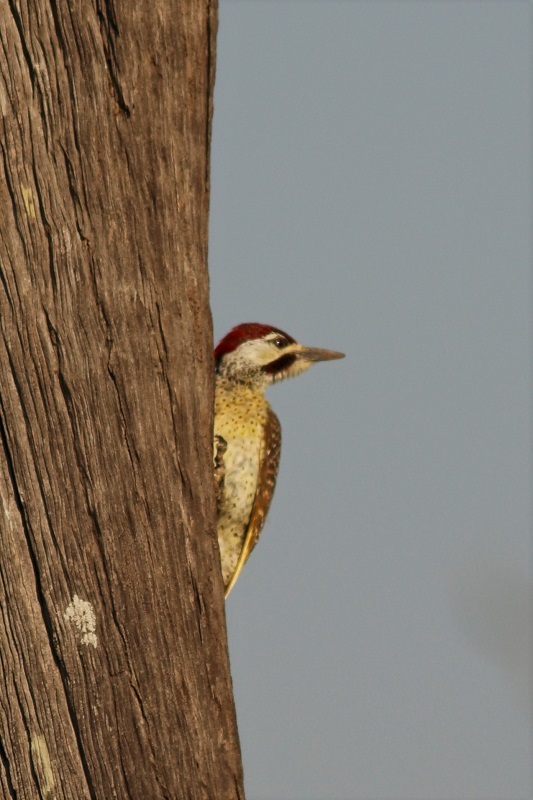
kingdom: Animalia
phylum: Chordata
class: Aves
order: Piciformes
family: Picidae
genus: Campethera
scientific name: Campethera bennettii
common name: Bennett's woodpecker
